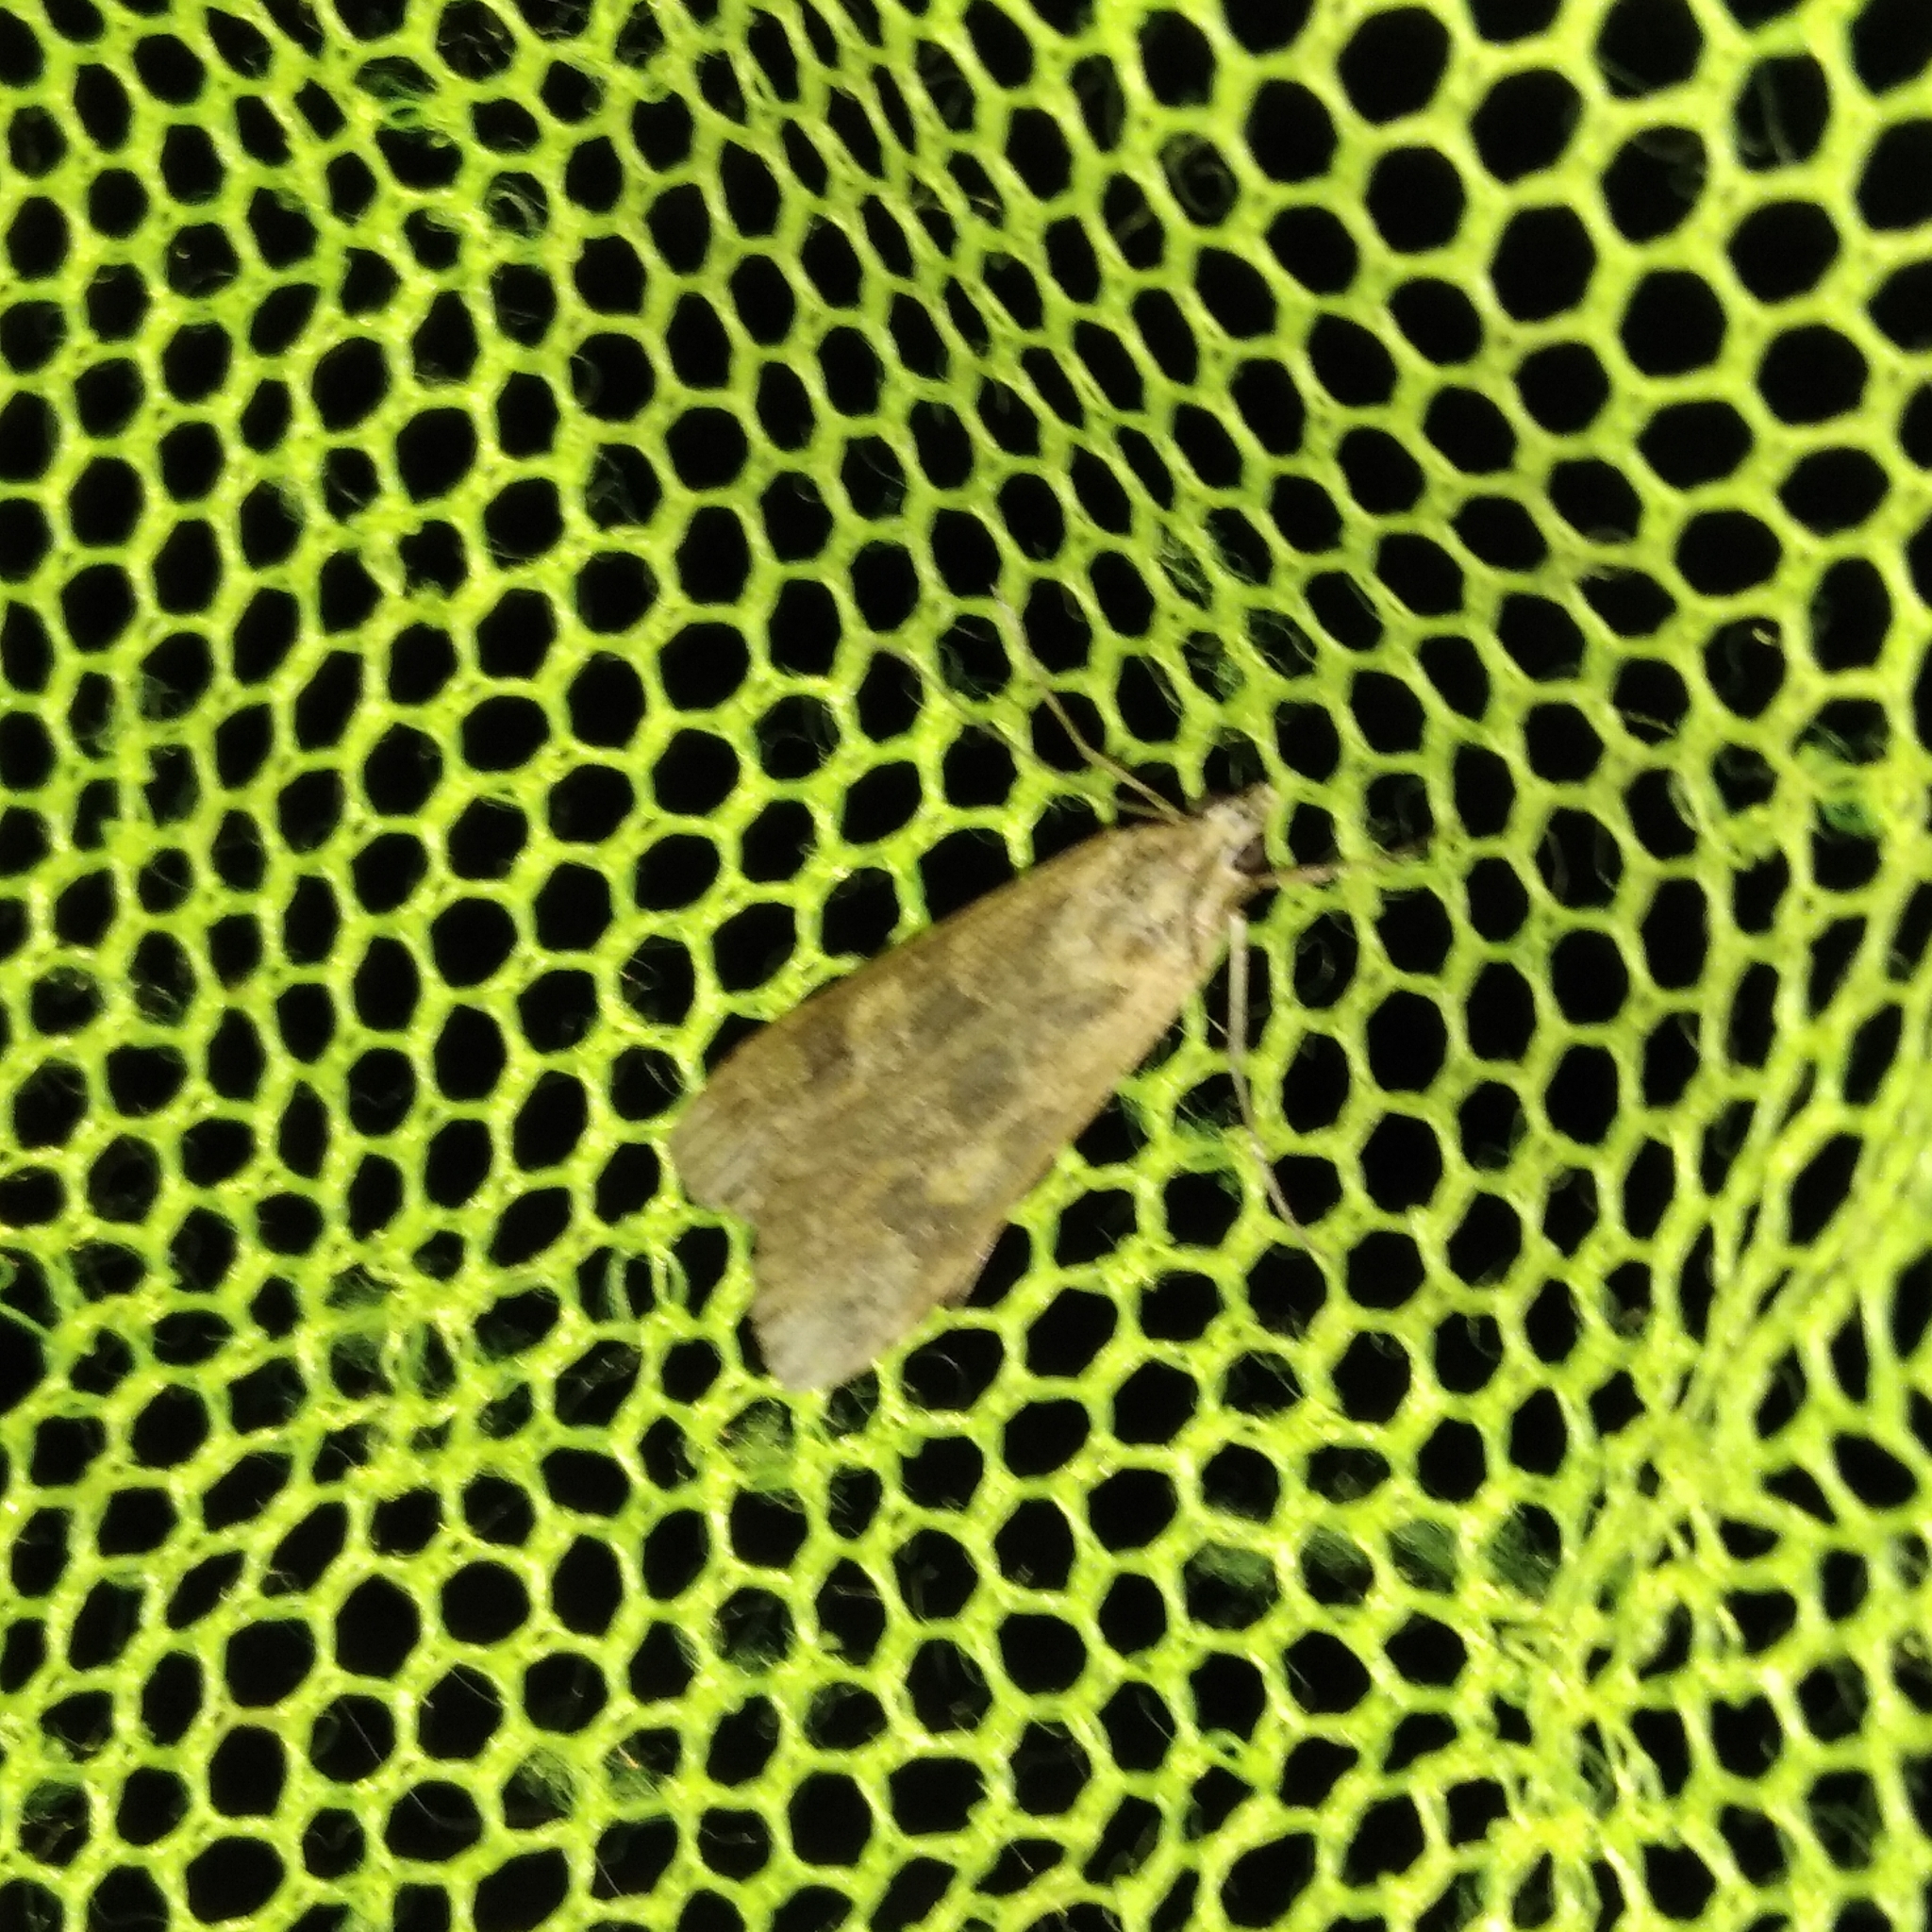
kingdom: Animalia
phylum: Arthropoda
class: Insecta
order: Lepidoptera
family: Crambidae
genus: Nomophila
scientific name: Nomophila noctuella
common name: Rush veneer
